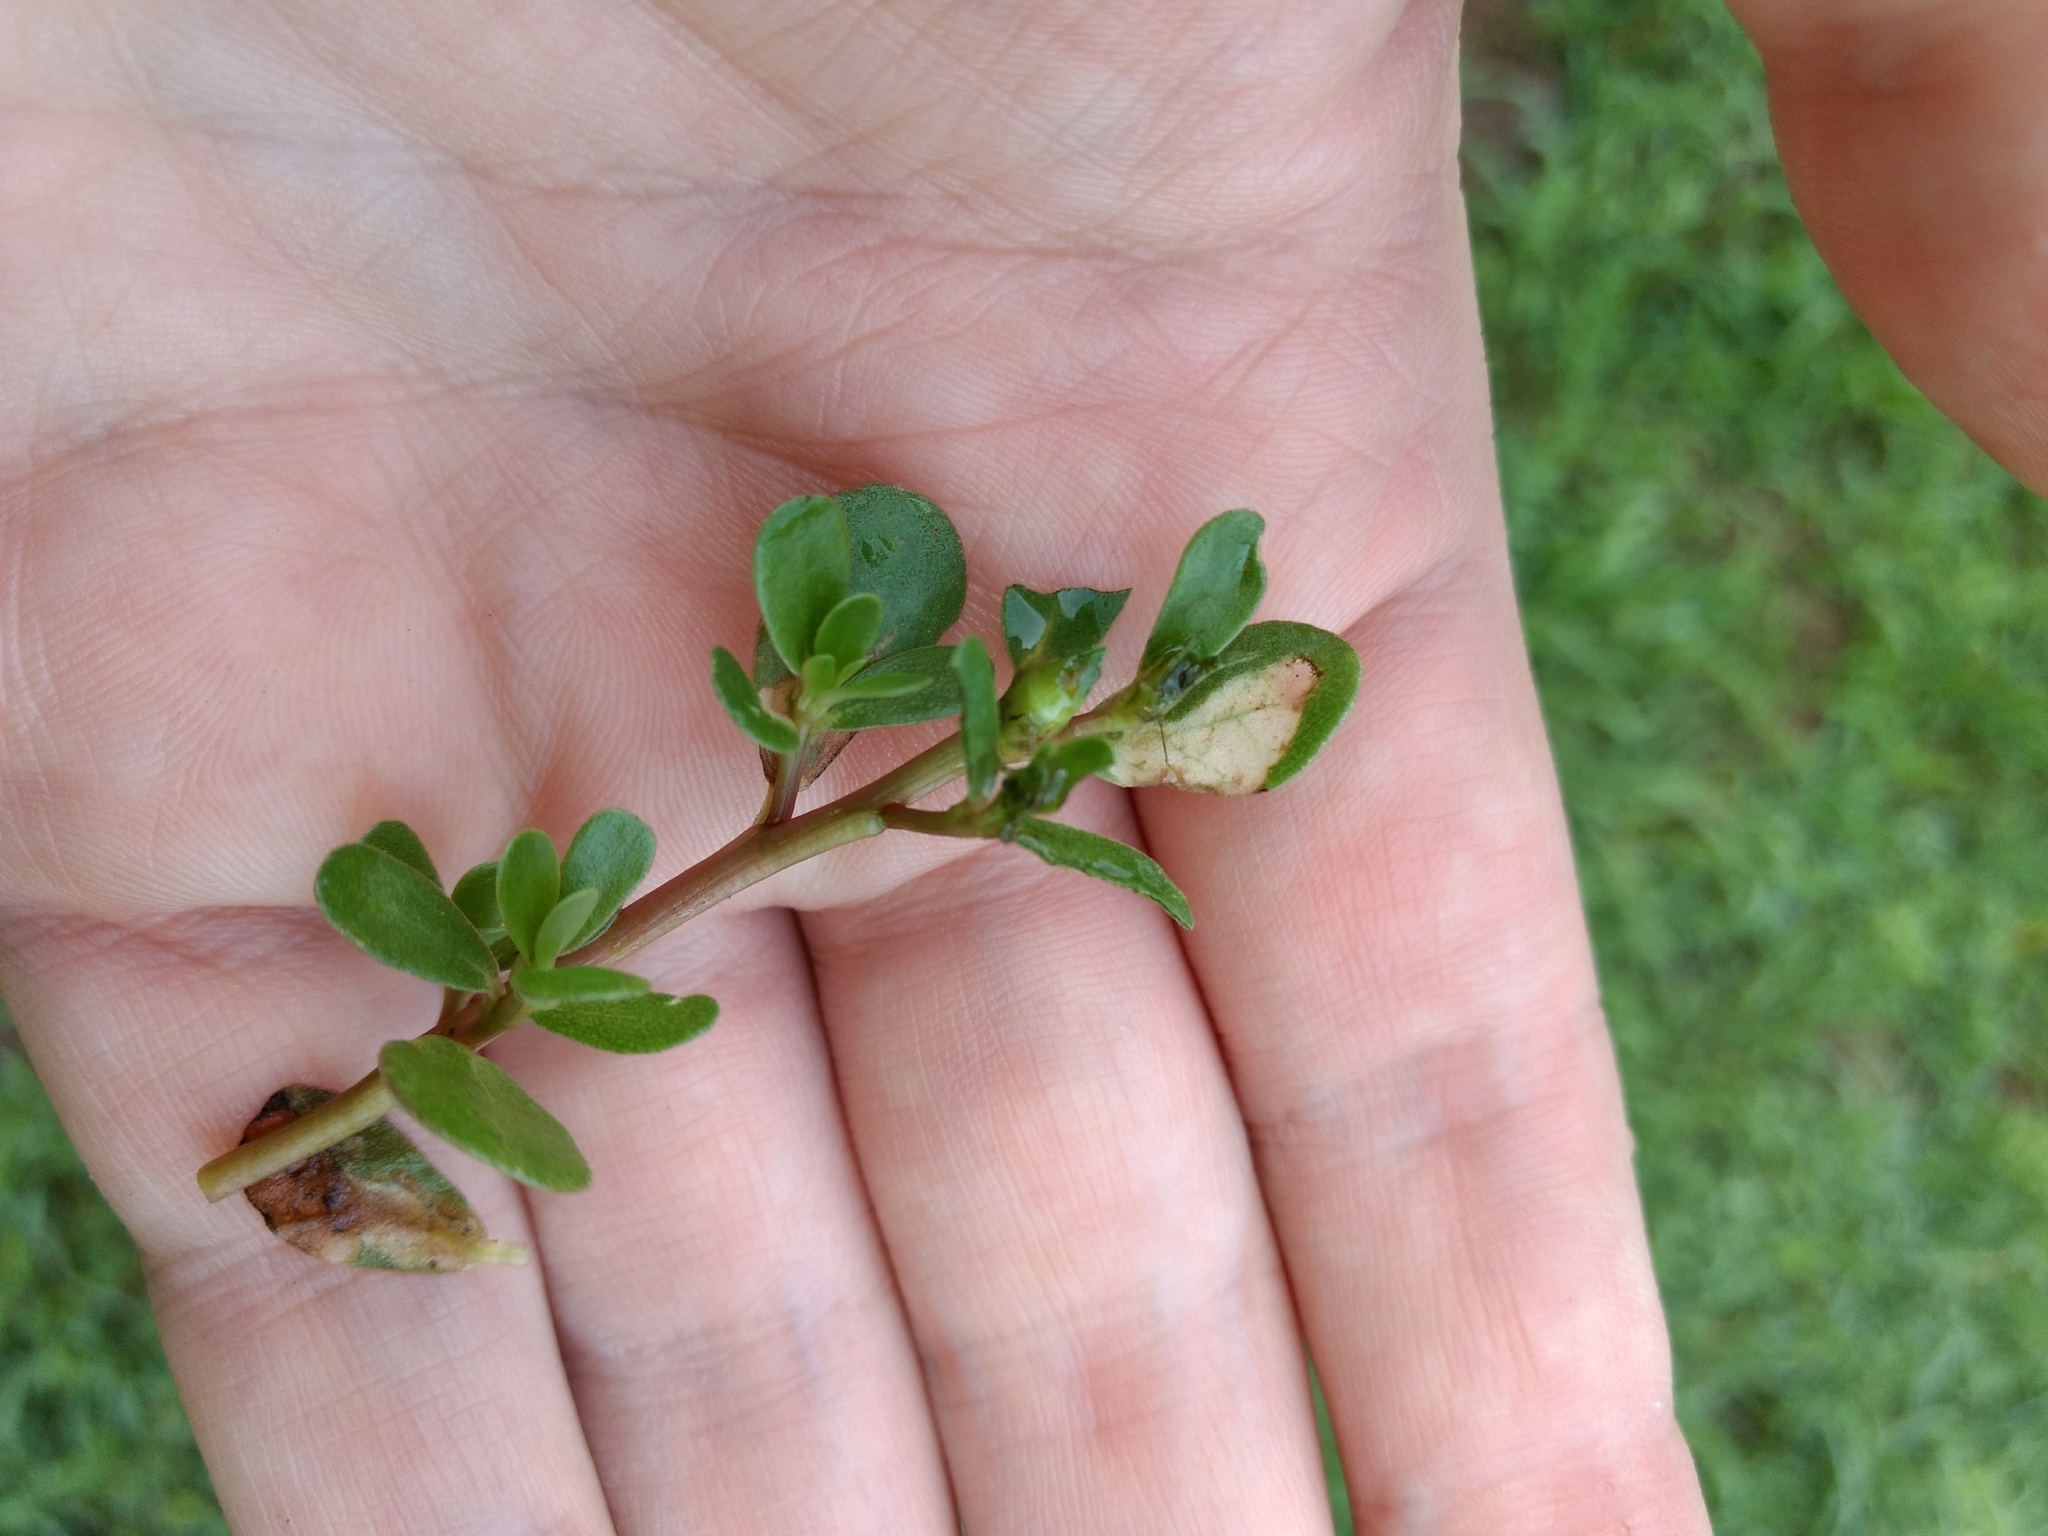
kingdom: Animalia
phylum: Arthropoda
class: Insecta
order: Hymenoptera
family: Argidae
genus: Schizocerella
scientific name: Schizocerella pilicornis
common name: Purslane sawfly
